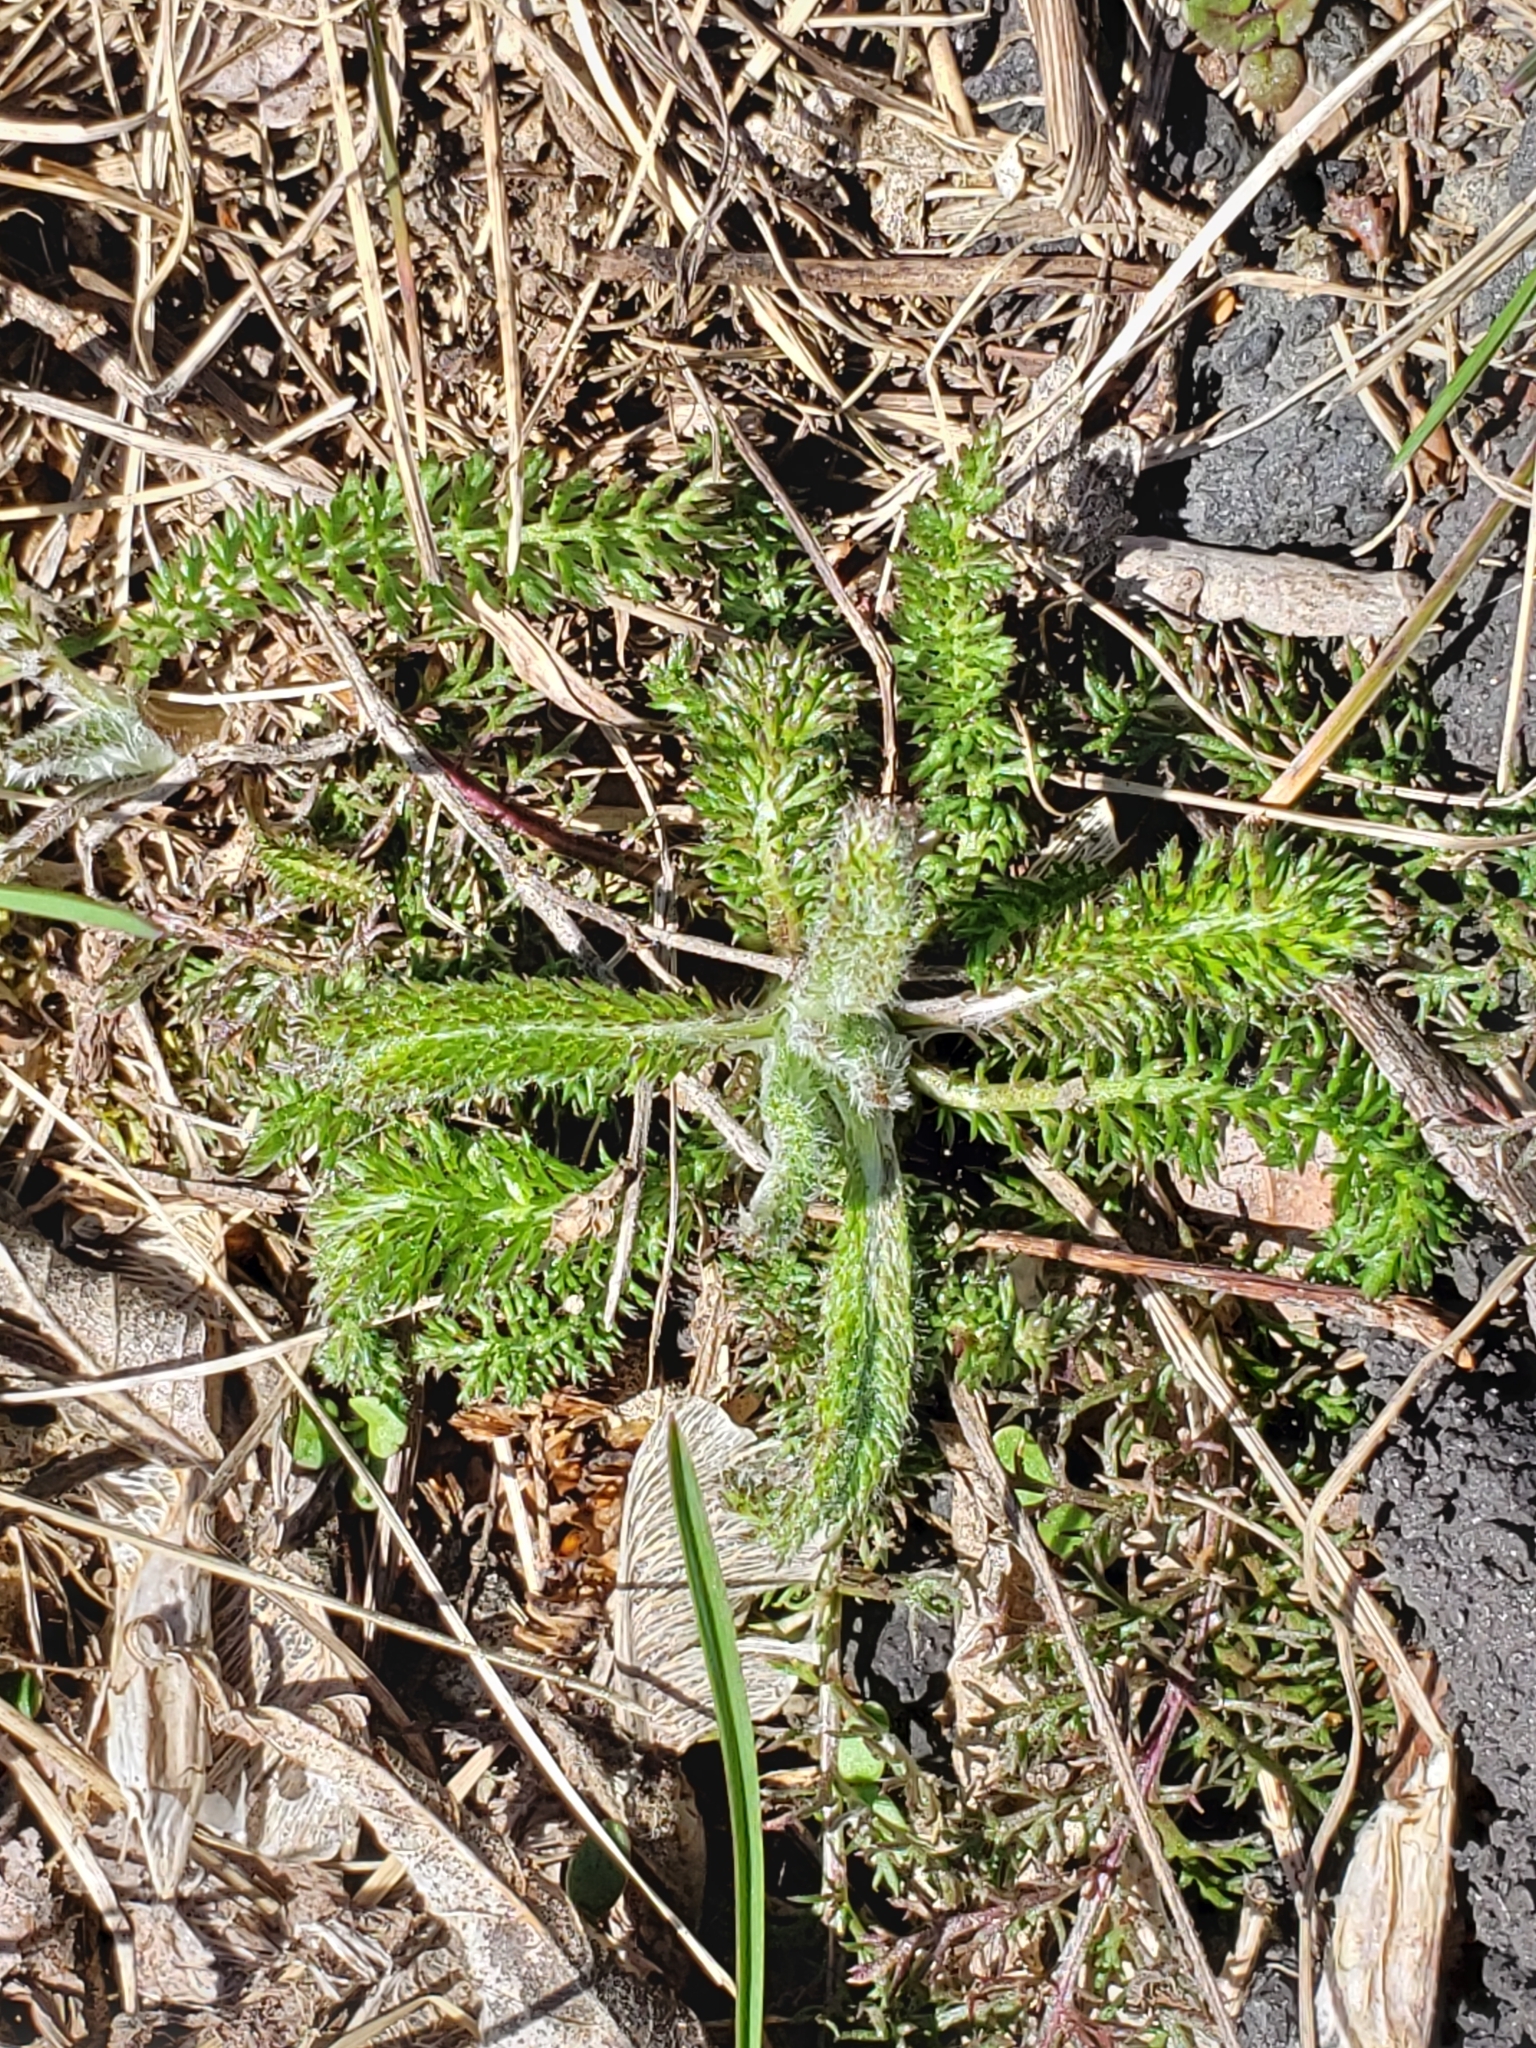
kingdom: Plantae
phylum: Tracheophyta
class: Magnoliopsida
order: Asterales
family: Asteraceae
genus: Achillea
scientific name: Achillea millefolium
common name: Yarrow
